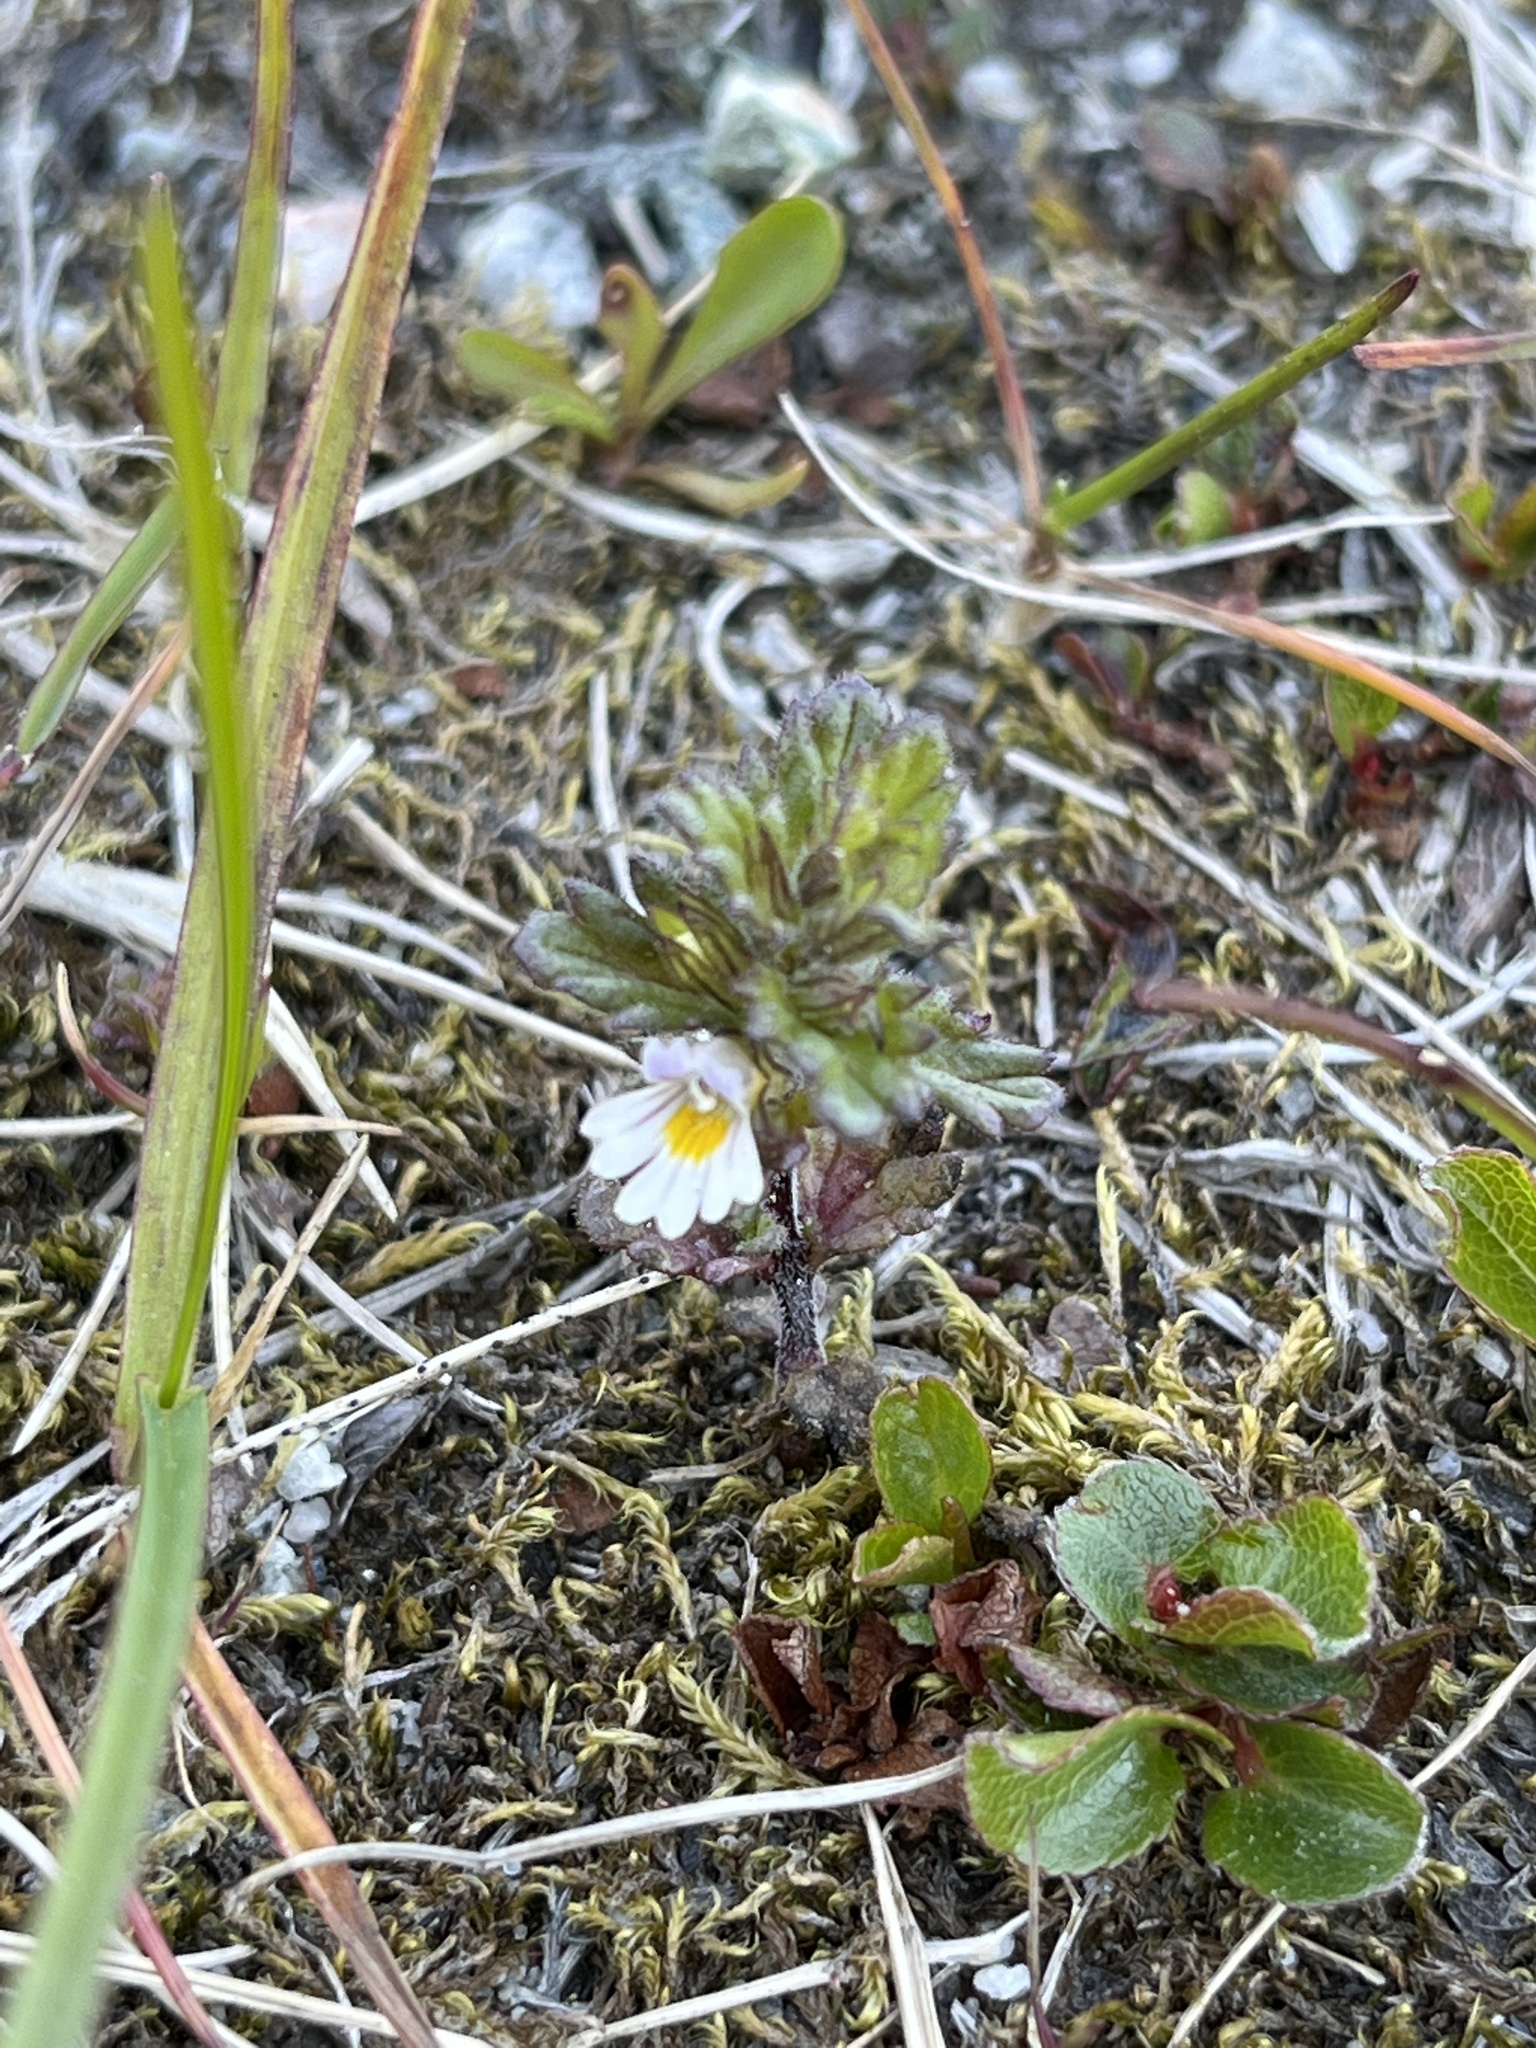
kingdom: Plantae
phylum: Tracheophyta
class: Magnoliopsida
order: Lamiales
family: Orobanchaceae
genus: Euphrasia
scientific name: Euphrasia frigida
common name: An eyebright
